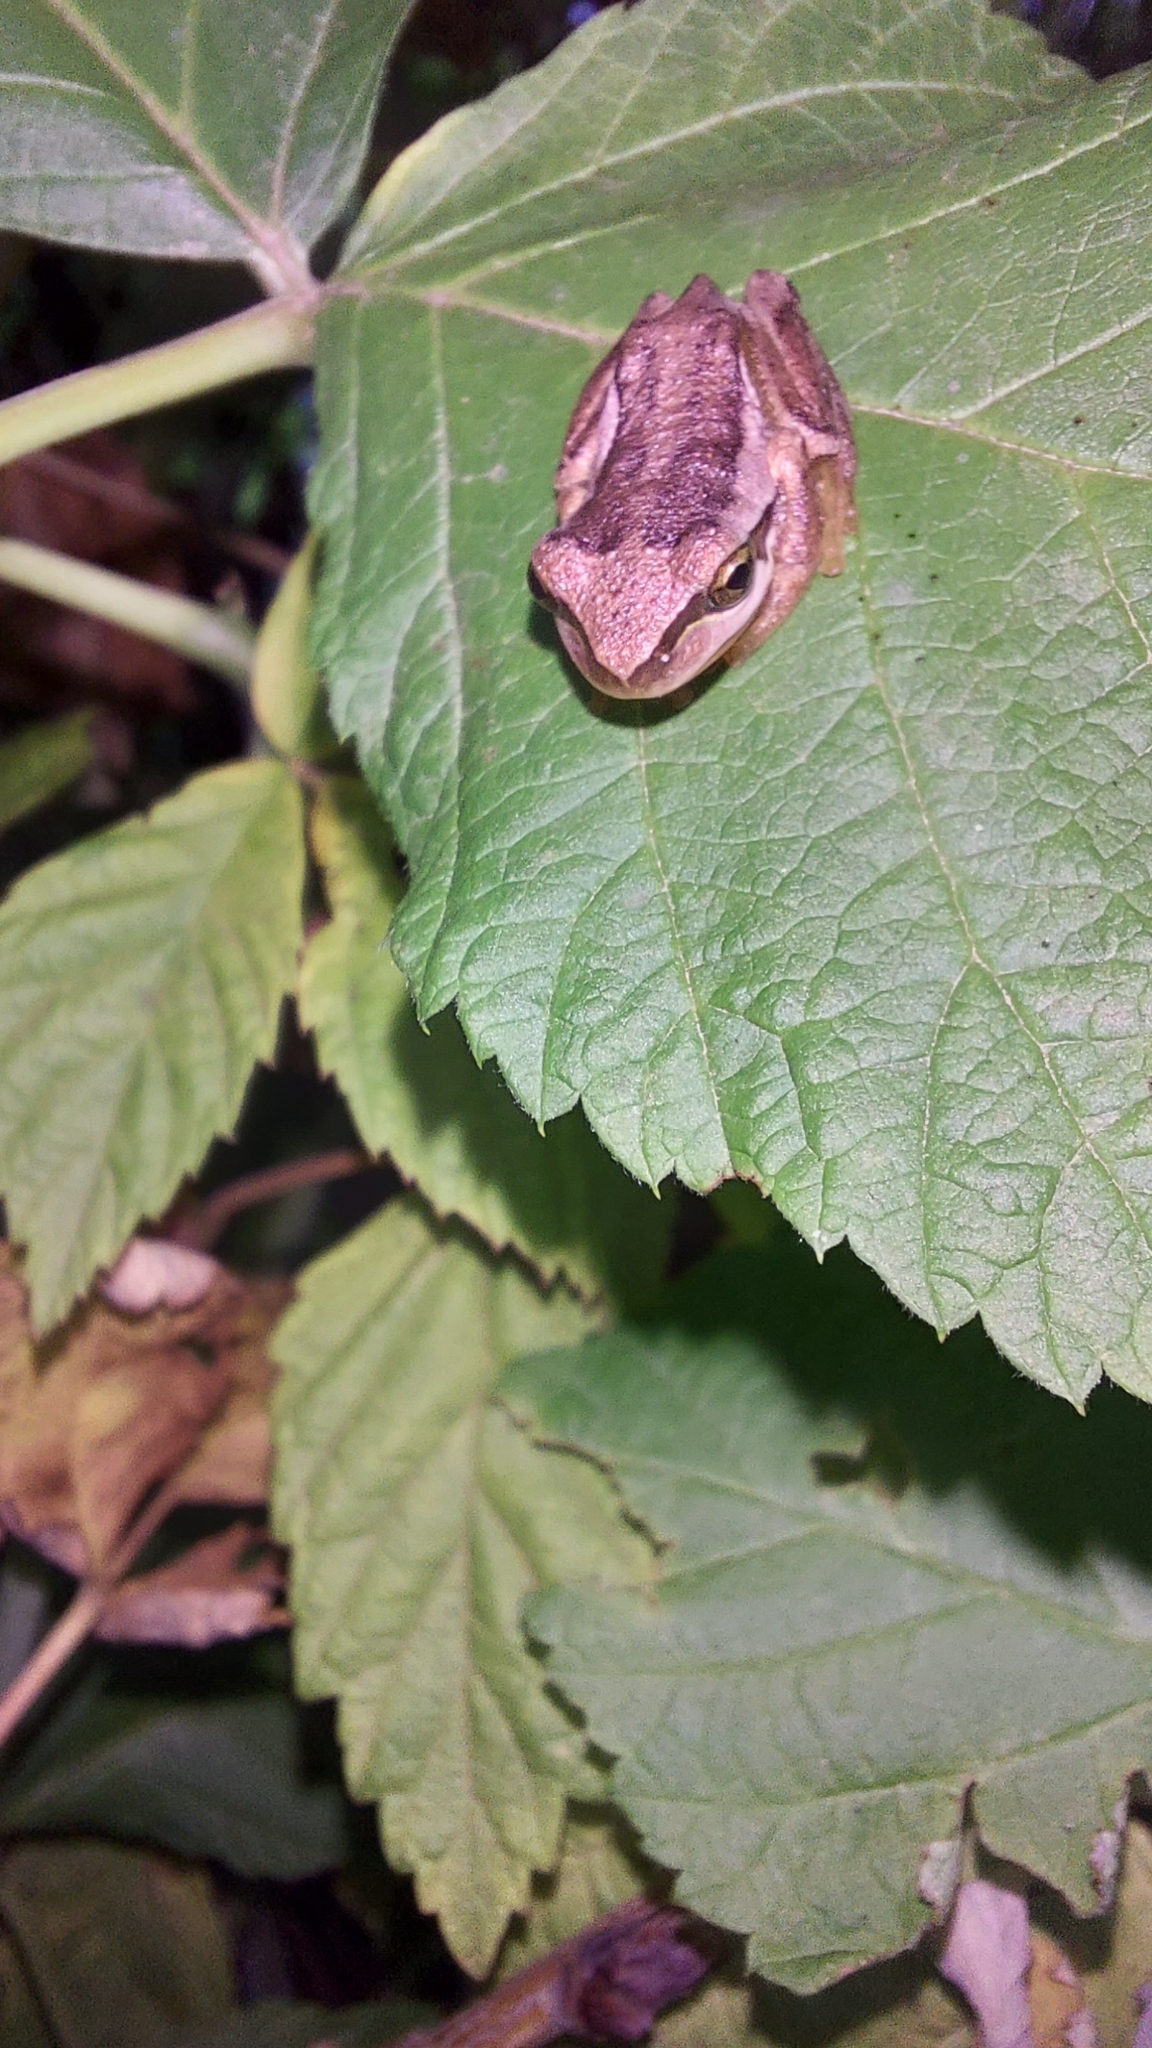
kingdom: Animalia
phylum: Chordata
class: Amphibia
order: Anura
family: Pelodryadidae
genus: Litoria
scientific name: Litoria ewingii
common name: Southern brown tree frog
